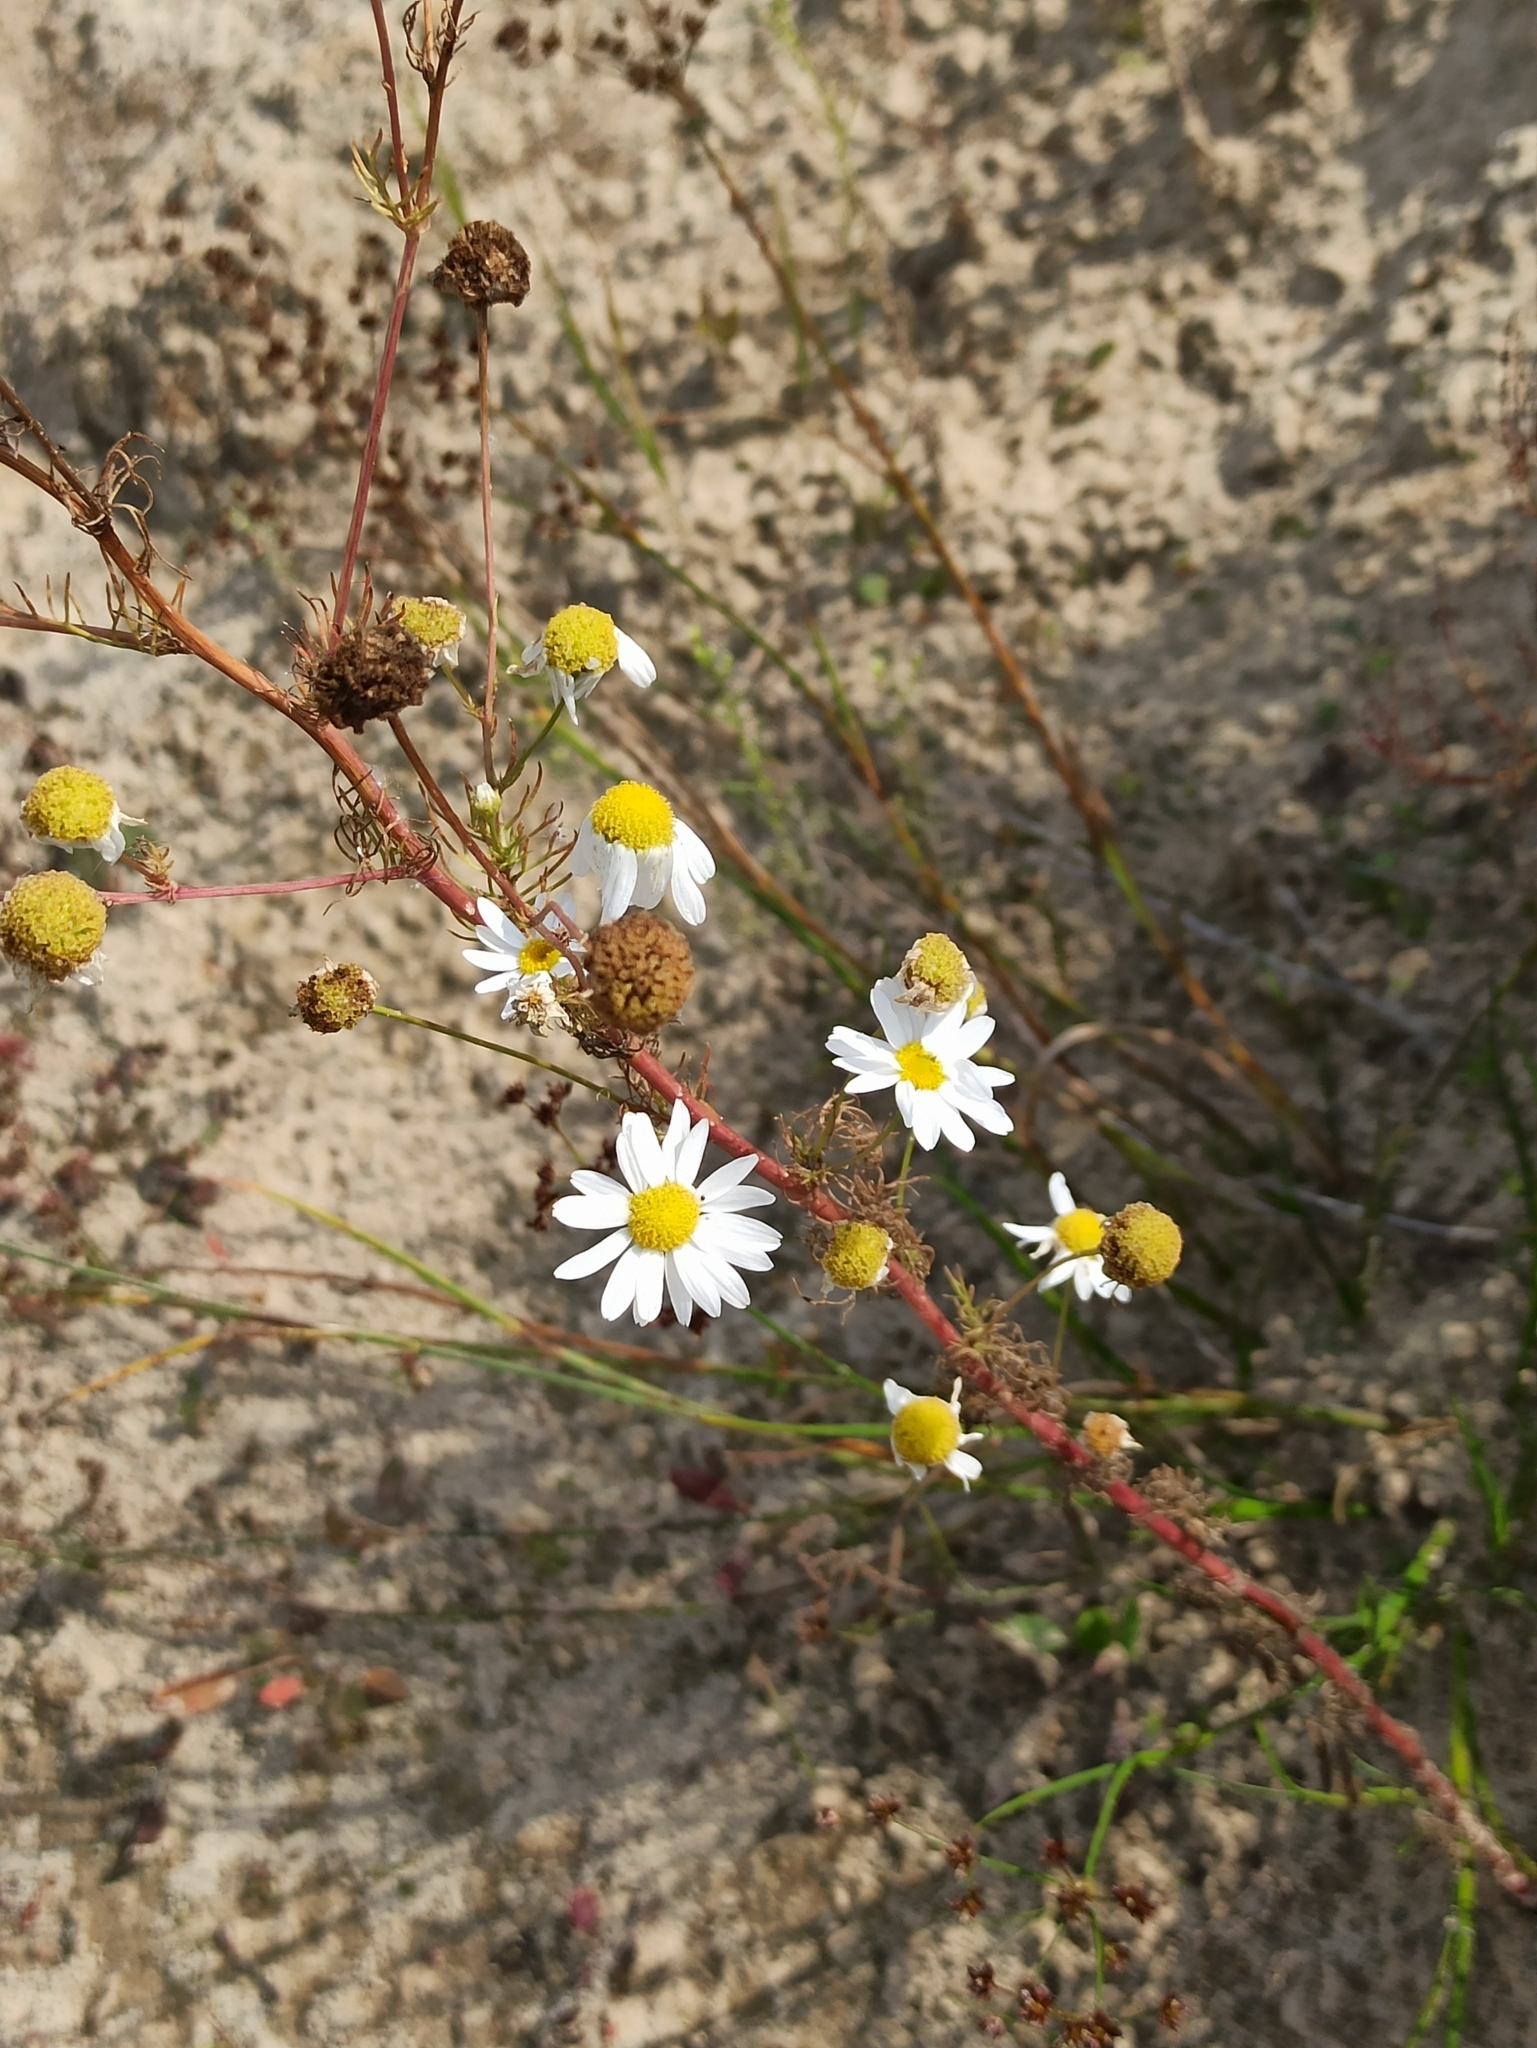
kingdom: Plantae
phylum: Tracheophyta
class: Magnoliopsida
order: Asterales
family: Asteraceae
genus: Tripleurospermum
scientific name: Tripleurospermum inodorum
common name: Scentless mayweed
